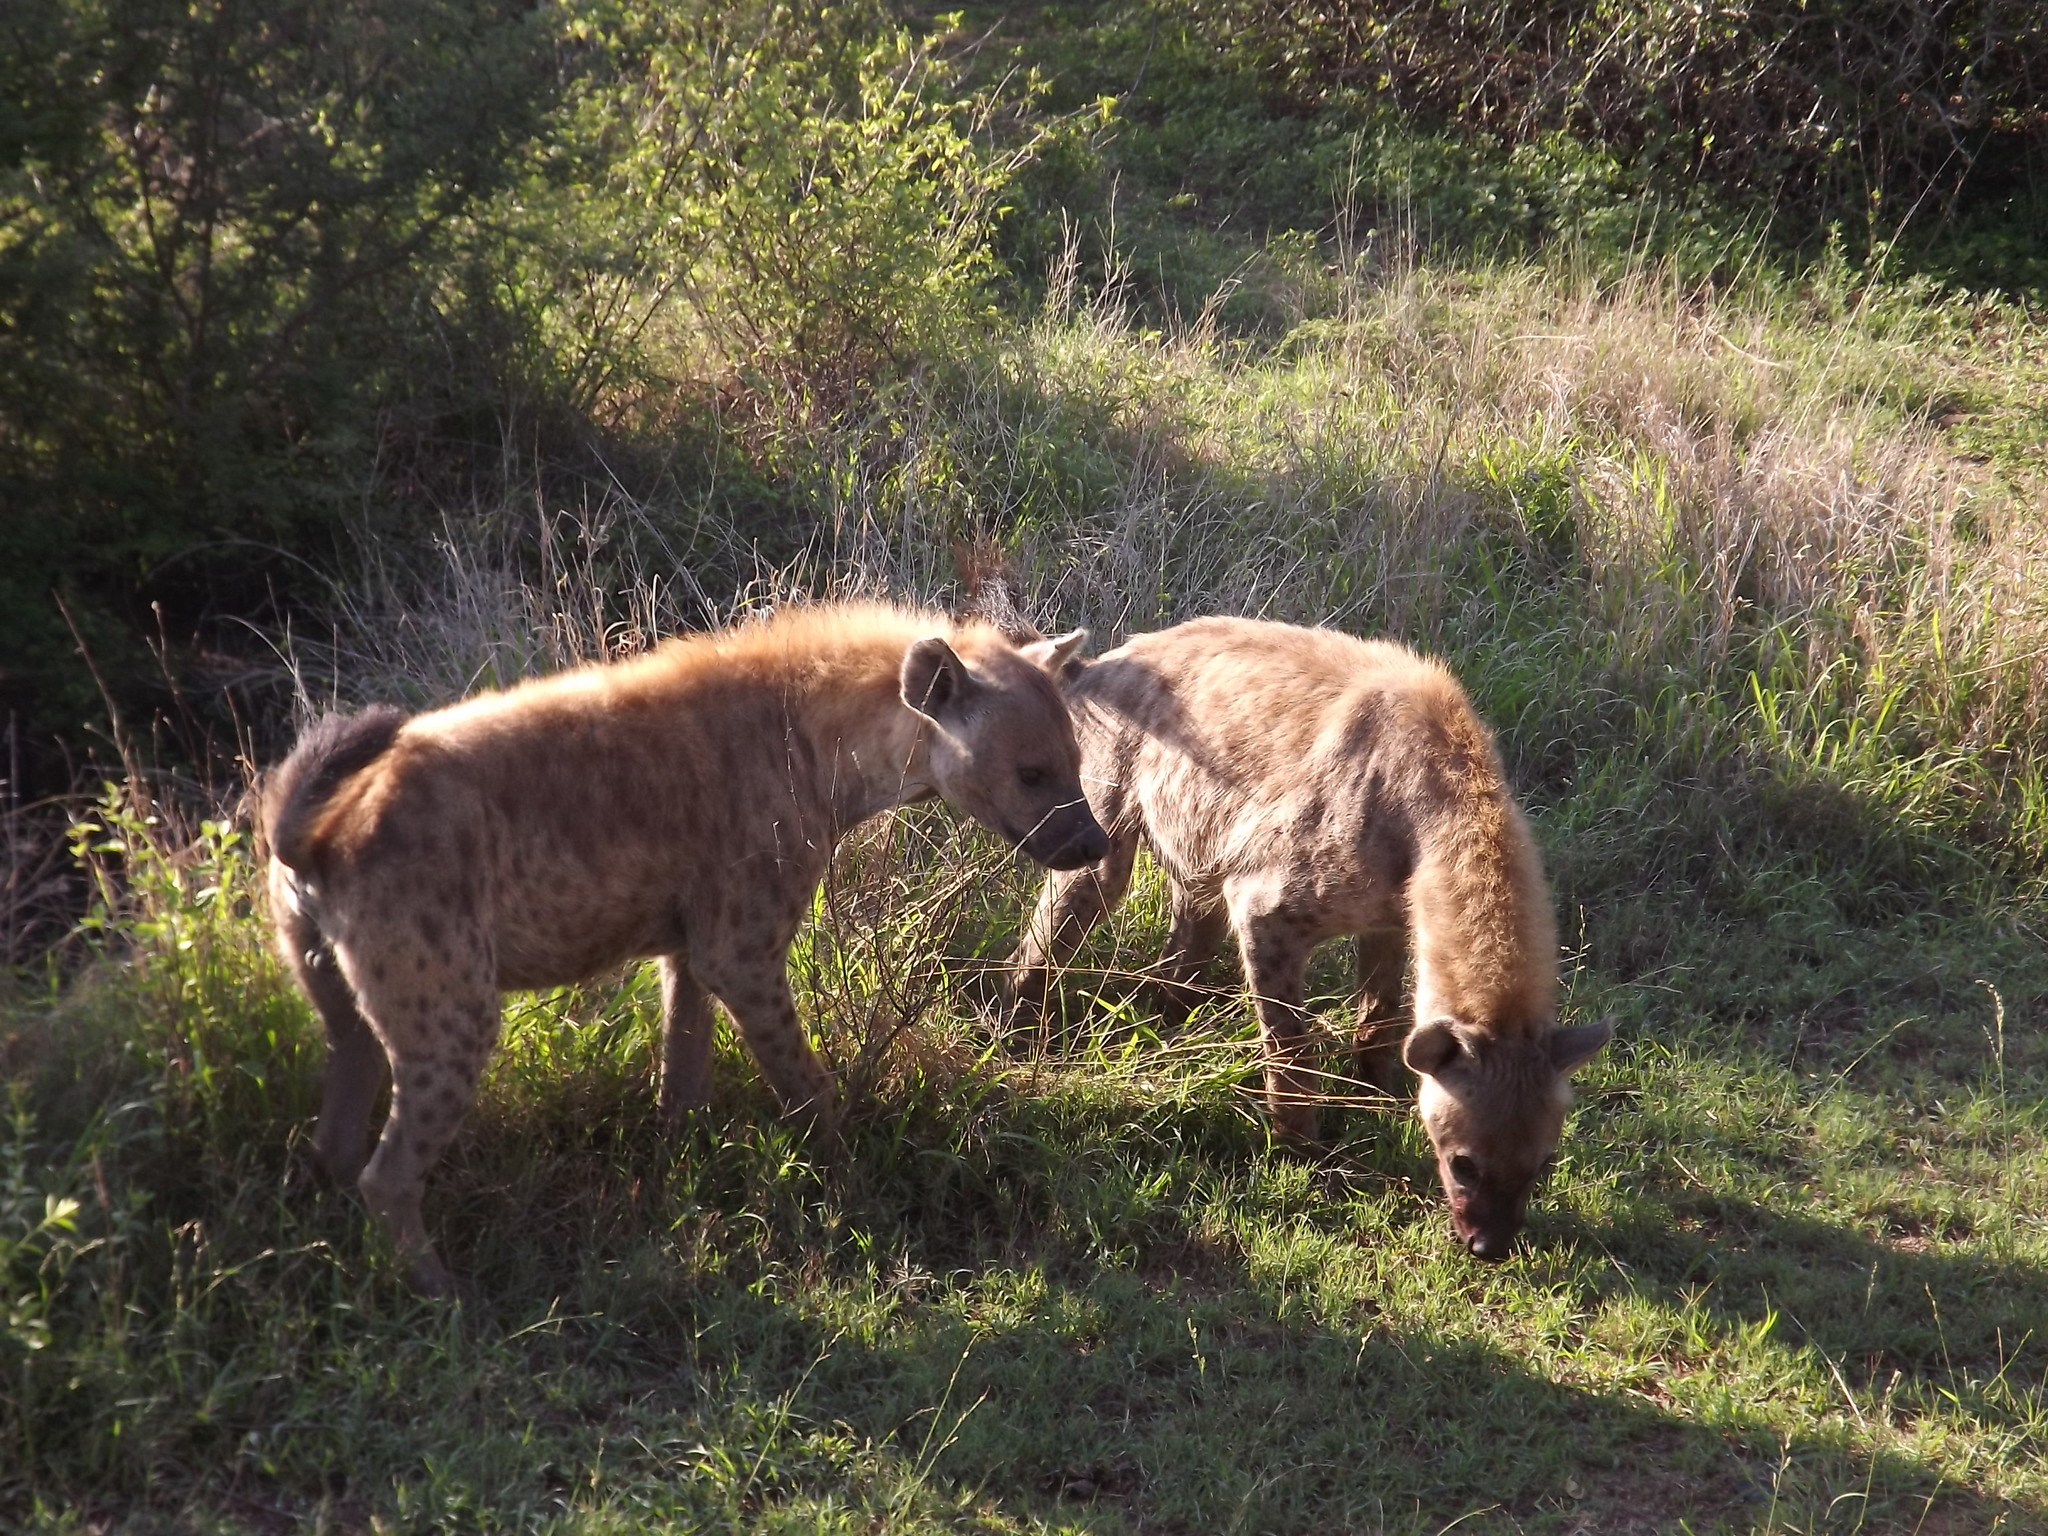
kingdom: Animalia
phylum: Chordata
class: Mammalia
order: Carnivora
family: Hyaenidae
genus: Crocuta
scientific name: Crocuta crocuta
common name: Spotted hyaena
